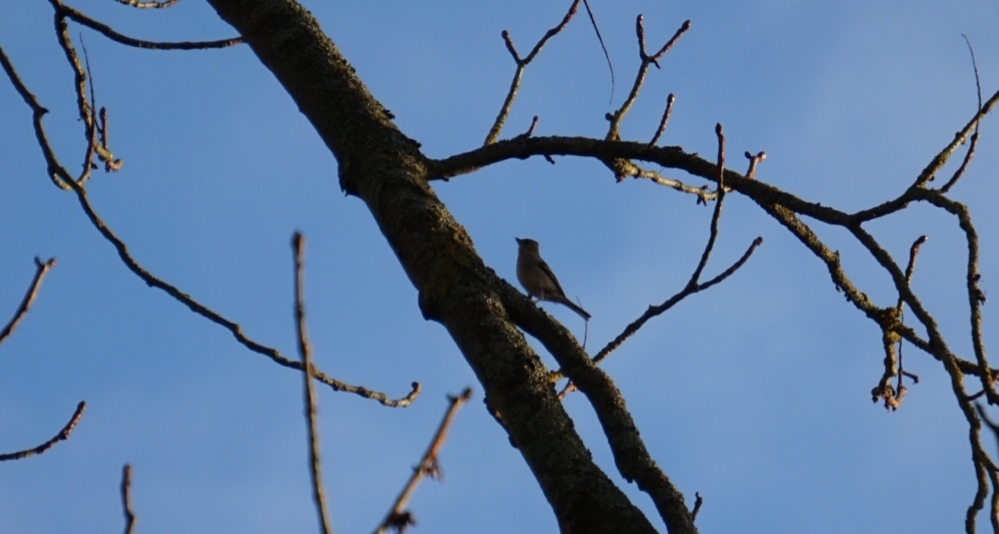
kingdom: Animalia
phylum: Chordata
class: Aves
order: Passeriformes
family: Fringillidae
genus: Fringilla
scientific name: Fringilla coelebs
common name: Common chaffinch
